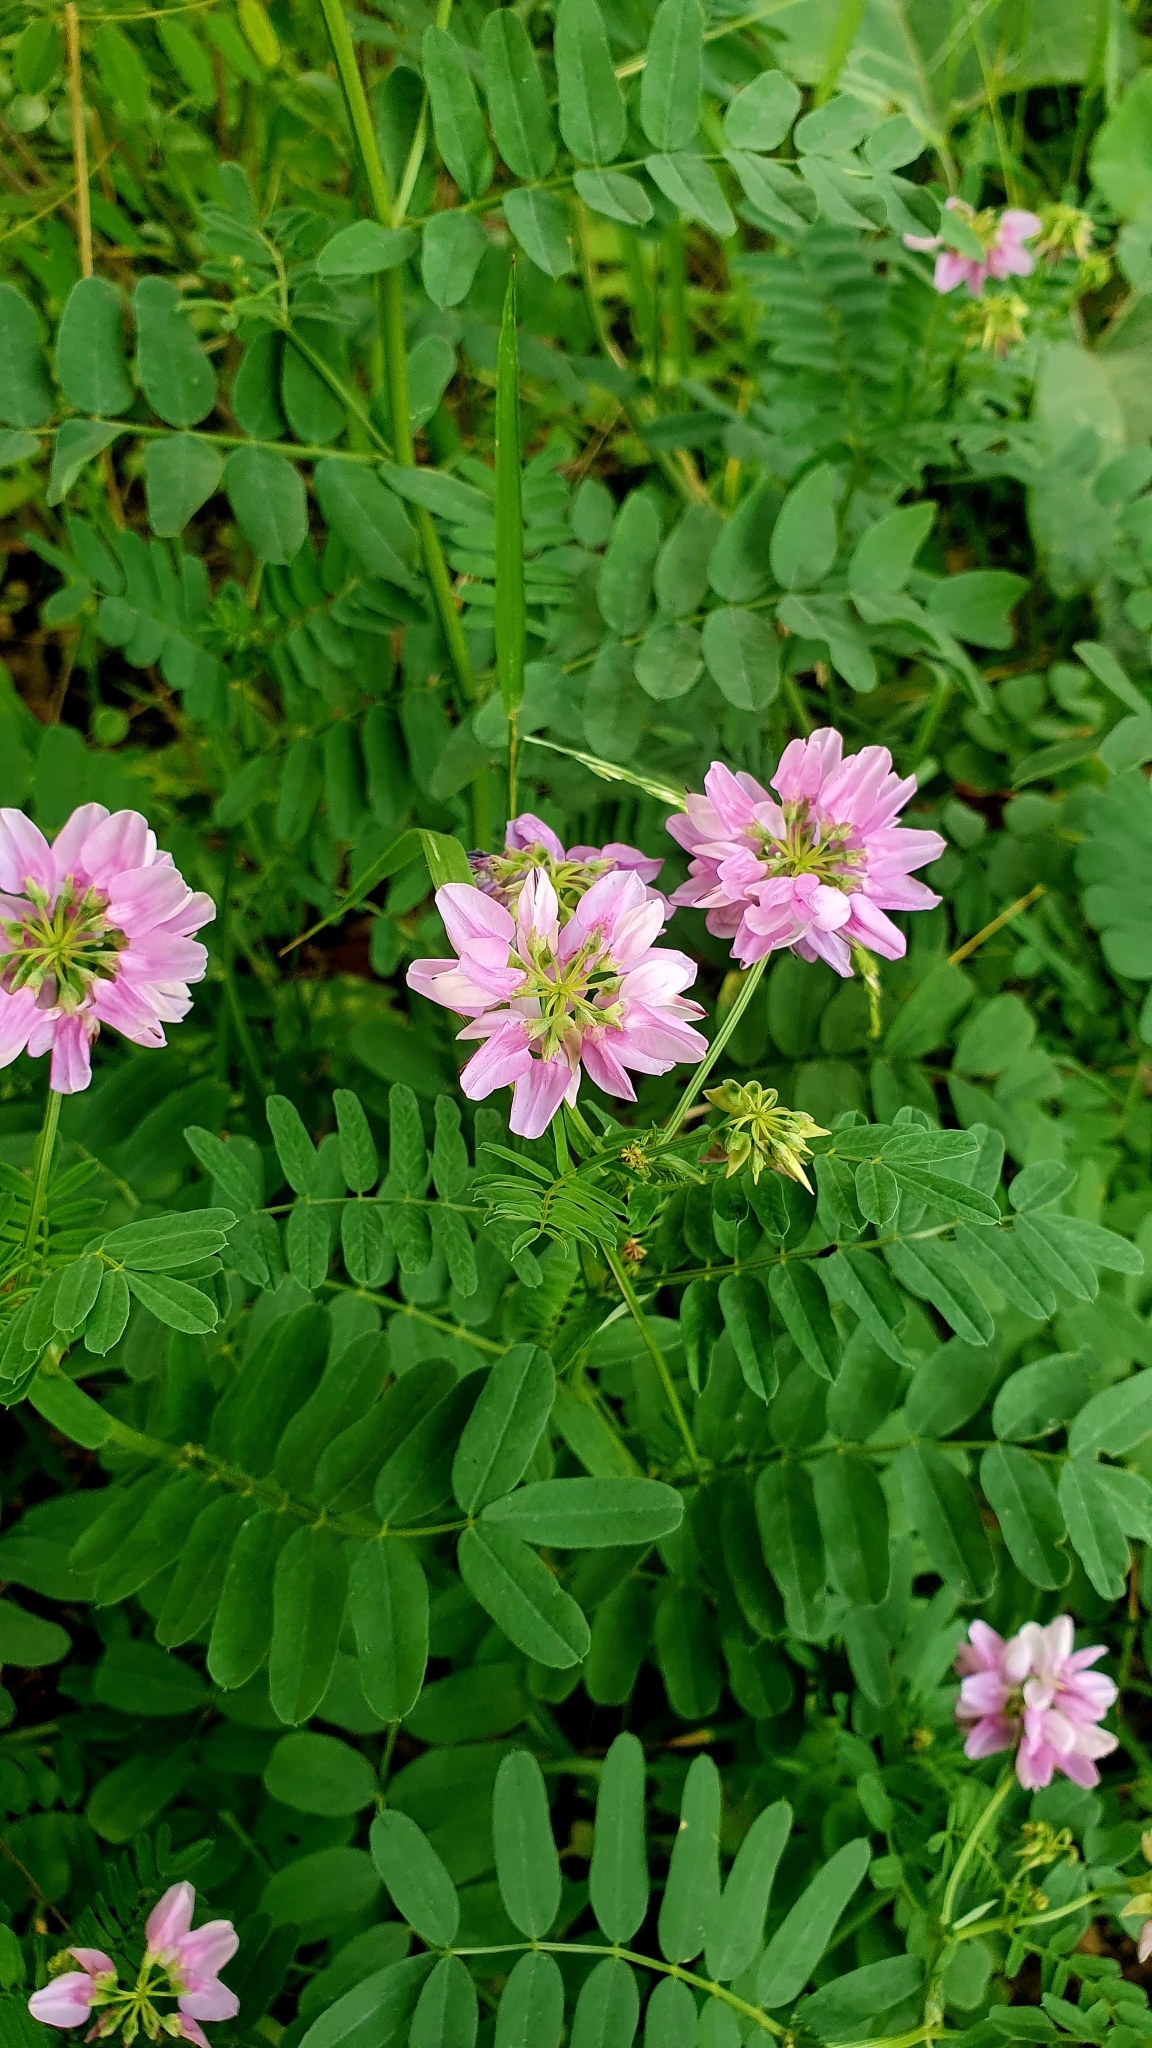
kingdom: Plantae
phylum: Tracheophyta
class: Magnoliopsida
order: Fabales
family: Fabaceae
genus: Coronilla
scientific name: Coronilla varia
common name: Crownvetch
